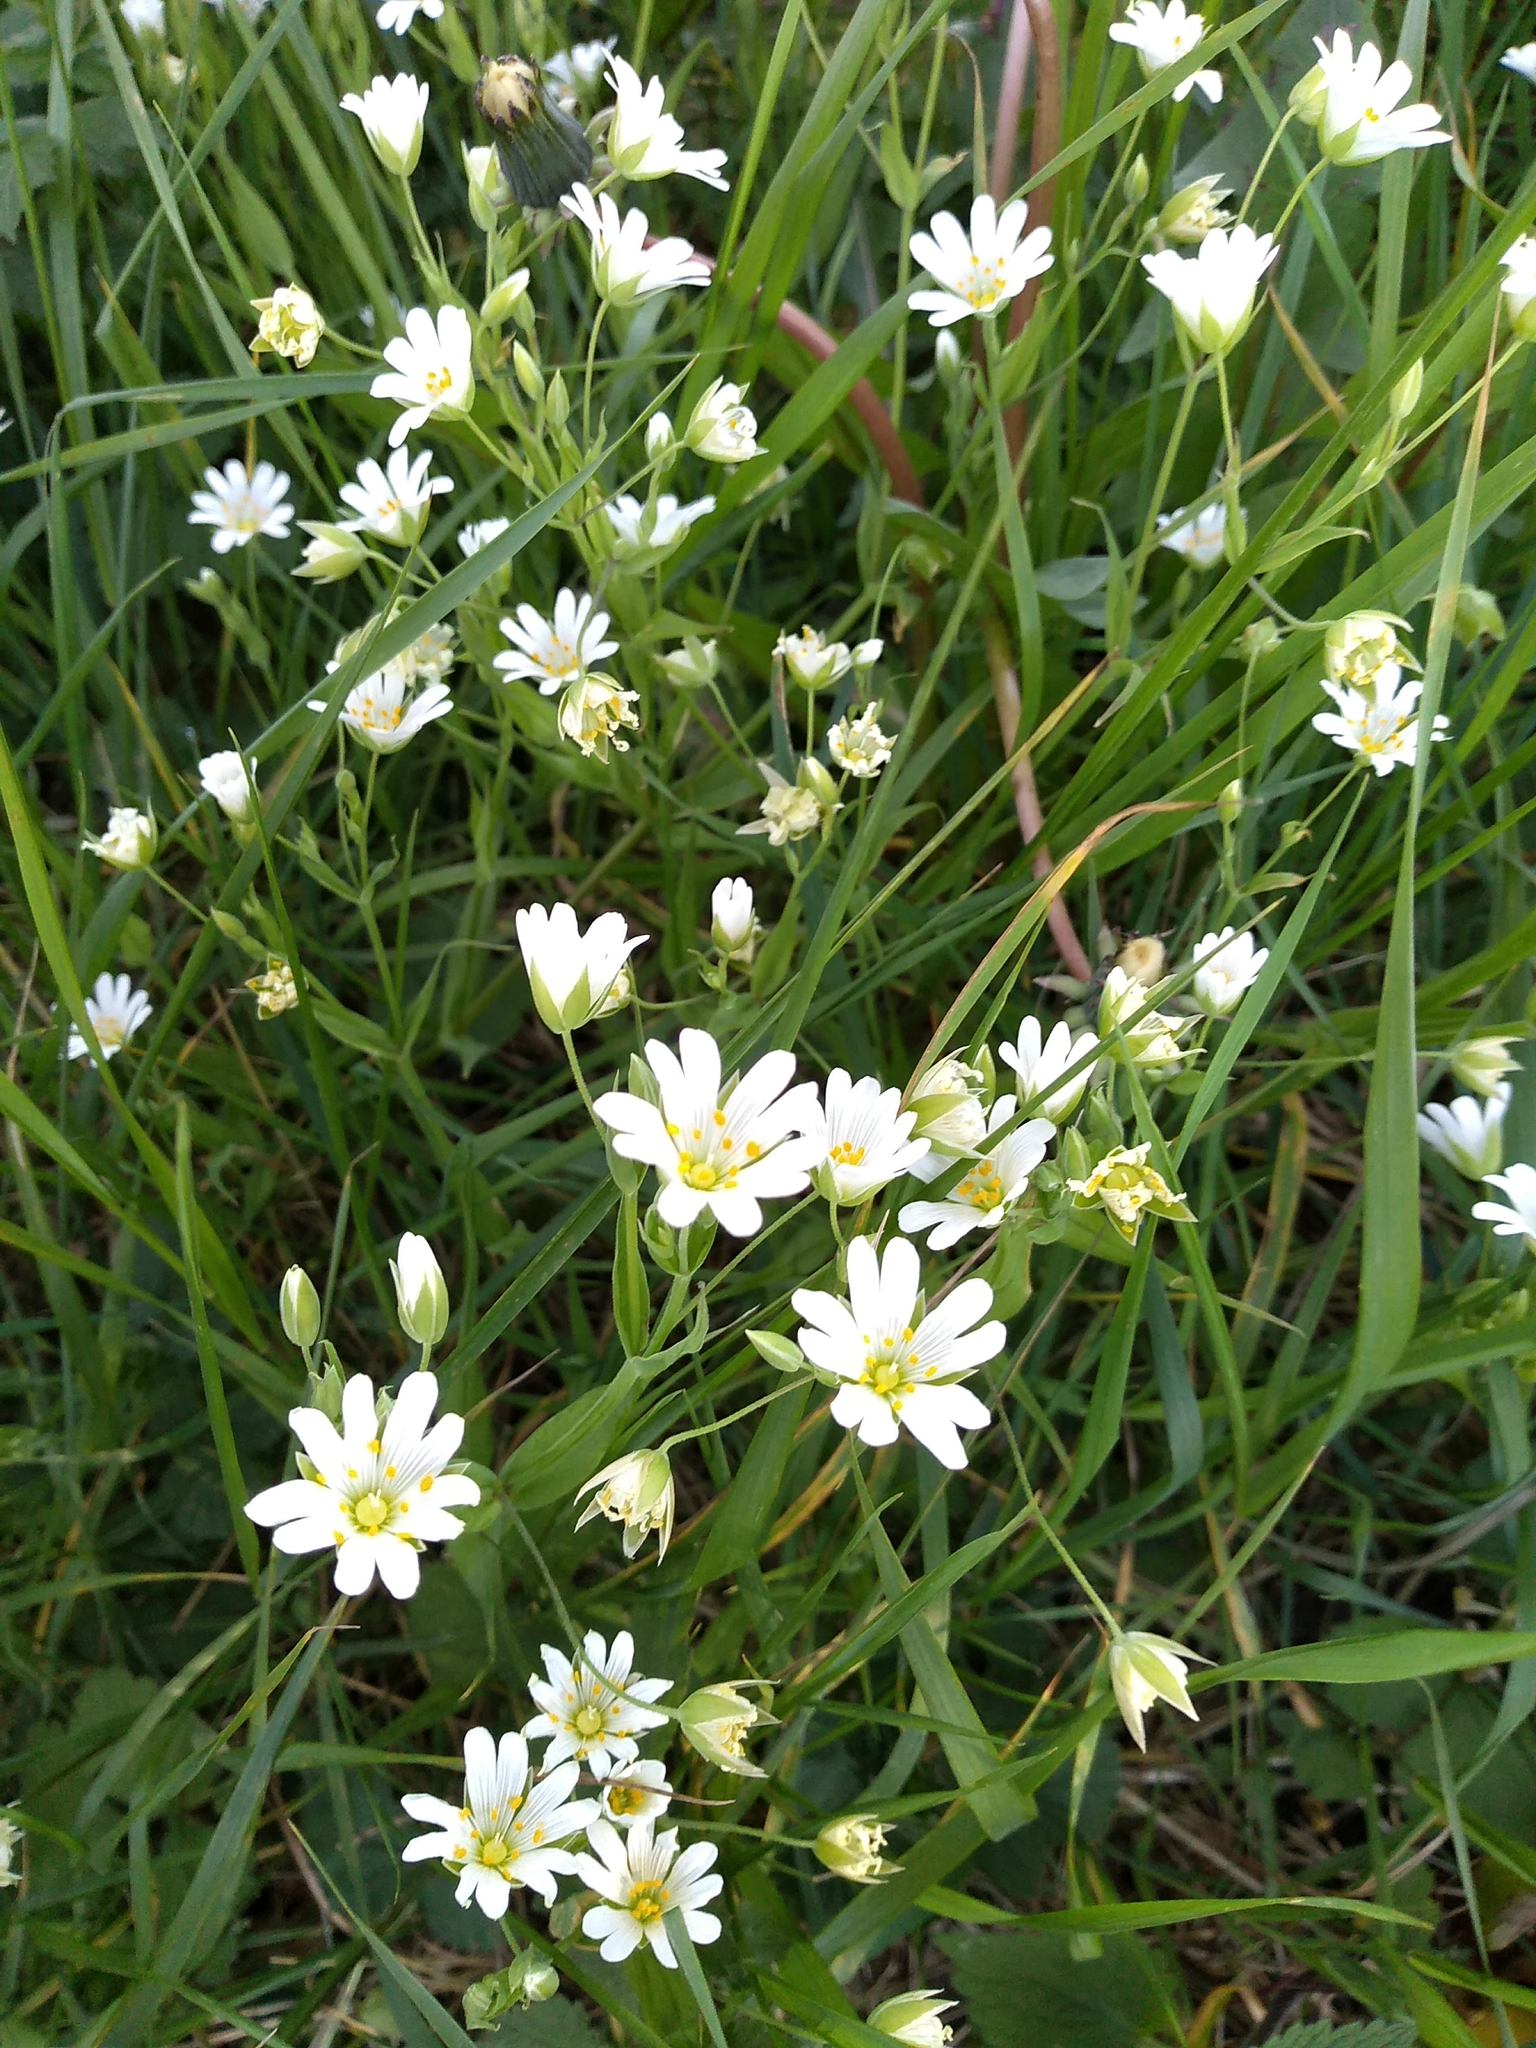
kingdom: Plantae
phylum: Tracheophyta
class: Magnoliopsida
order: Caryophyllales
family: Caryophyllaceae
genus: Rabelera
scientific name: Rabelera holostea
